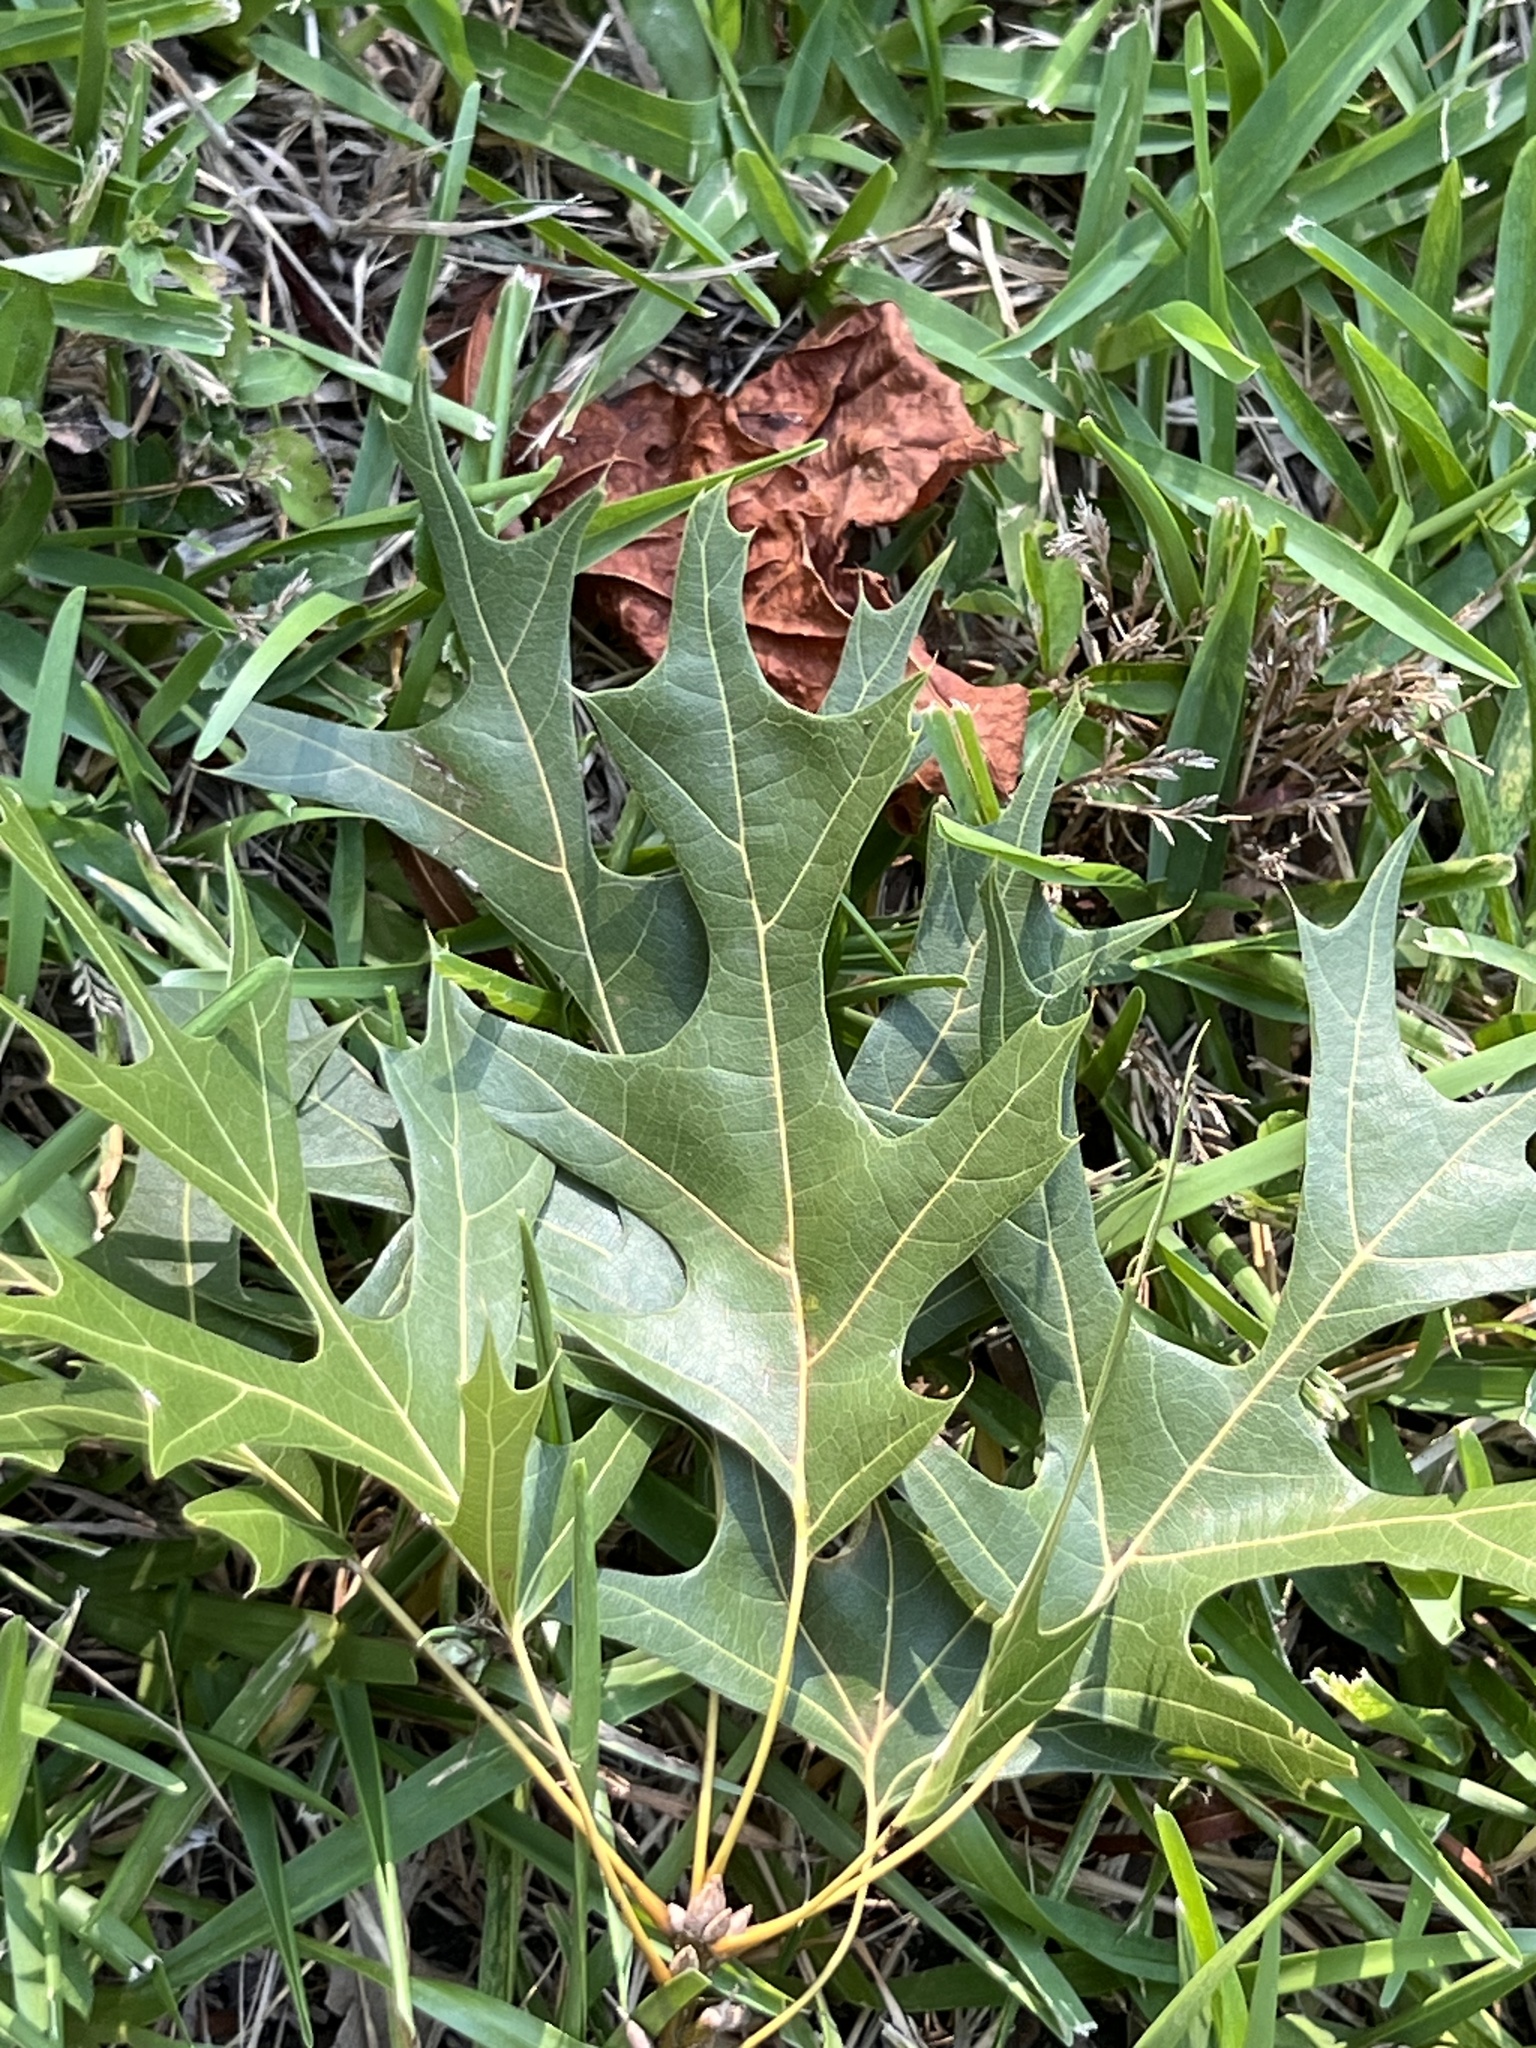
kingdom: Plantae
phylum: Tracheophyta
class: Magnoliopsida
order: Fagales
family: Fagaceae
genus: Quercus
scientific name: Quercus shumardii
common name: Shumard oak
